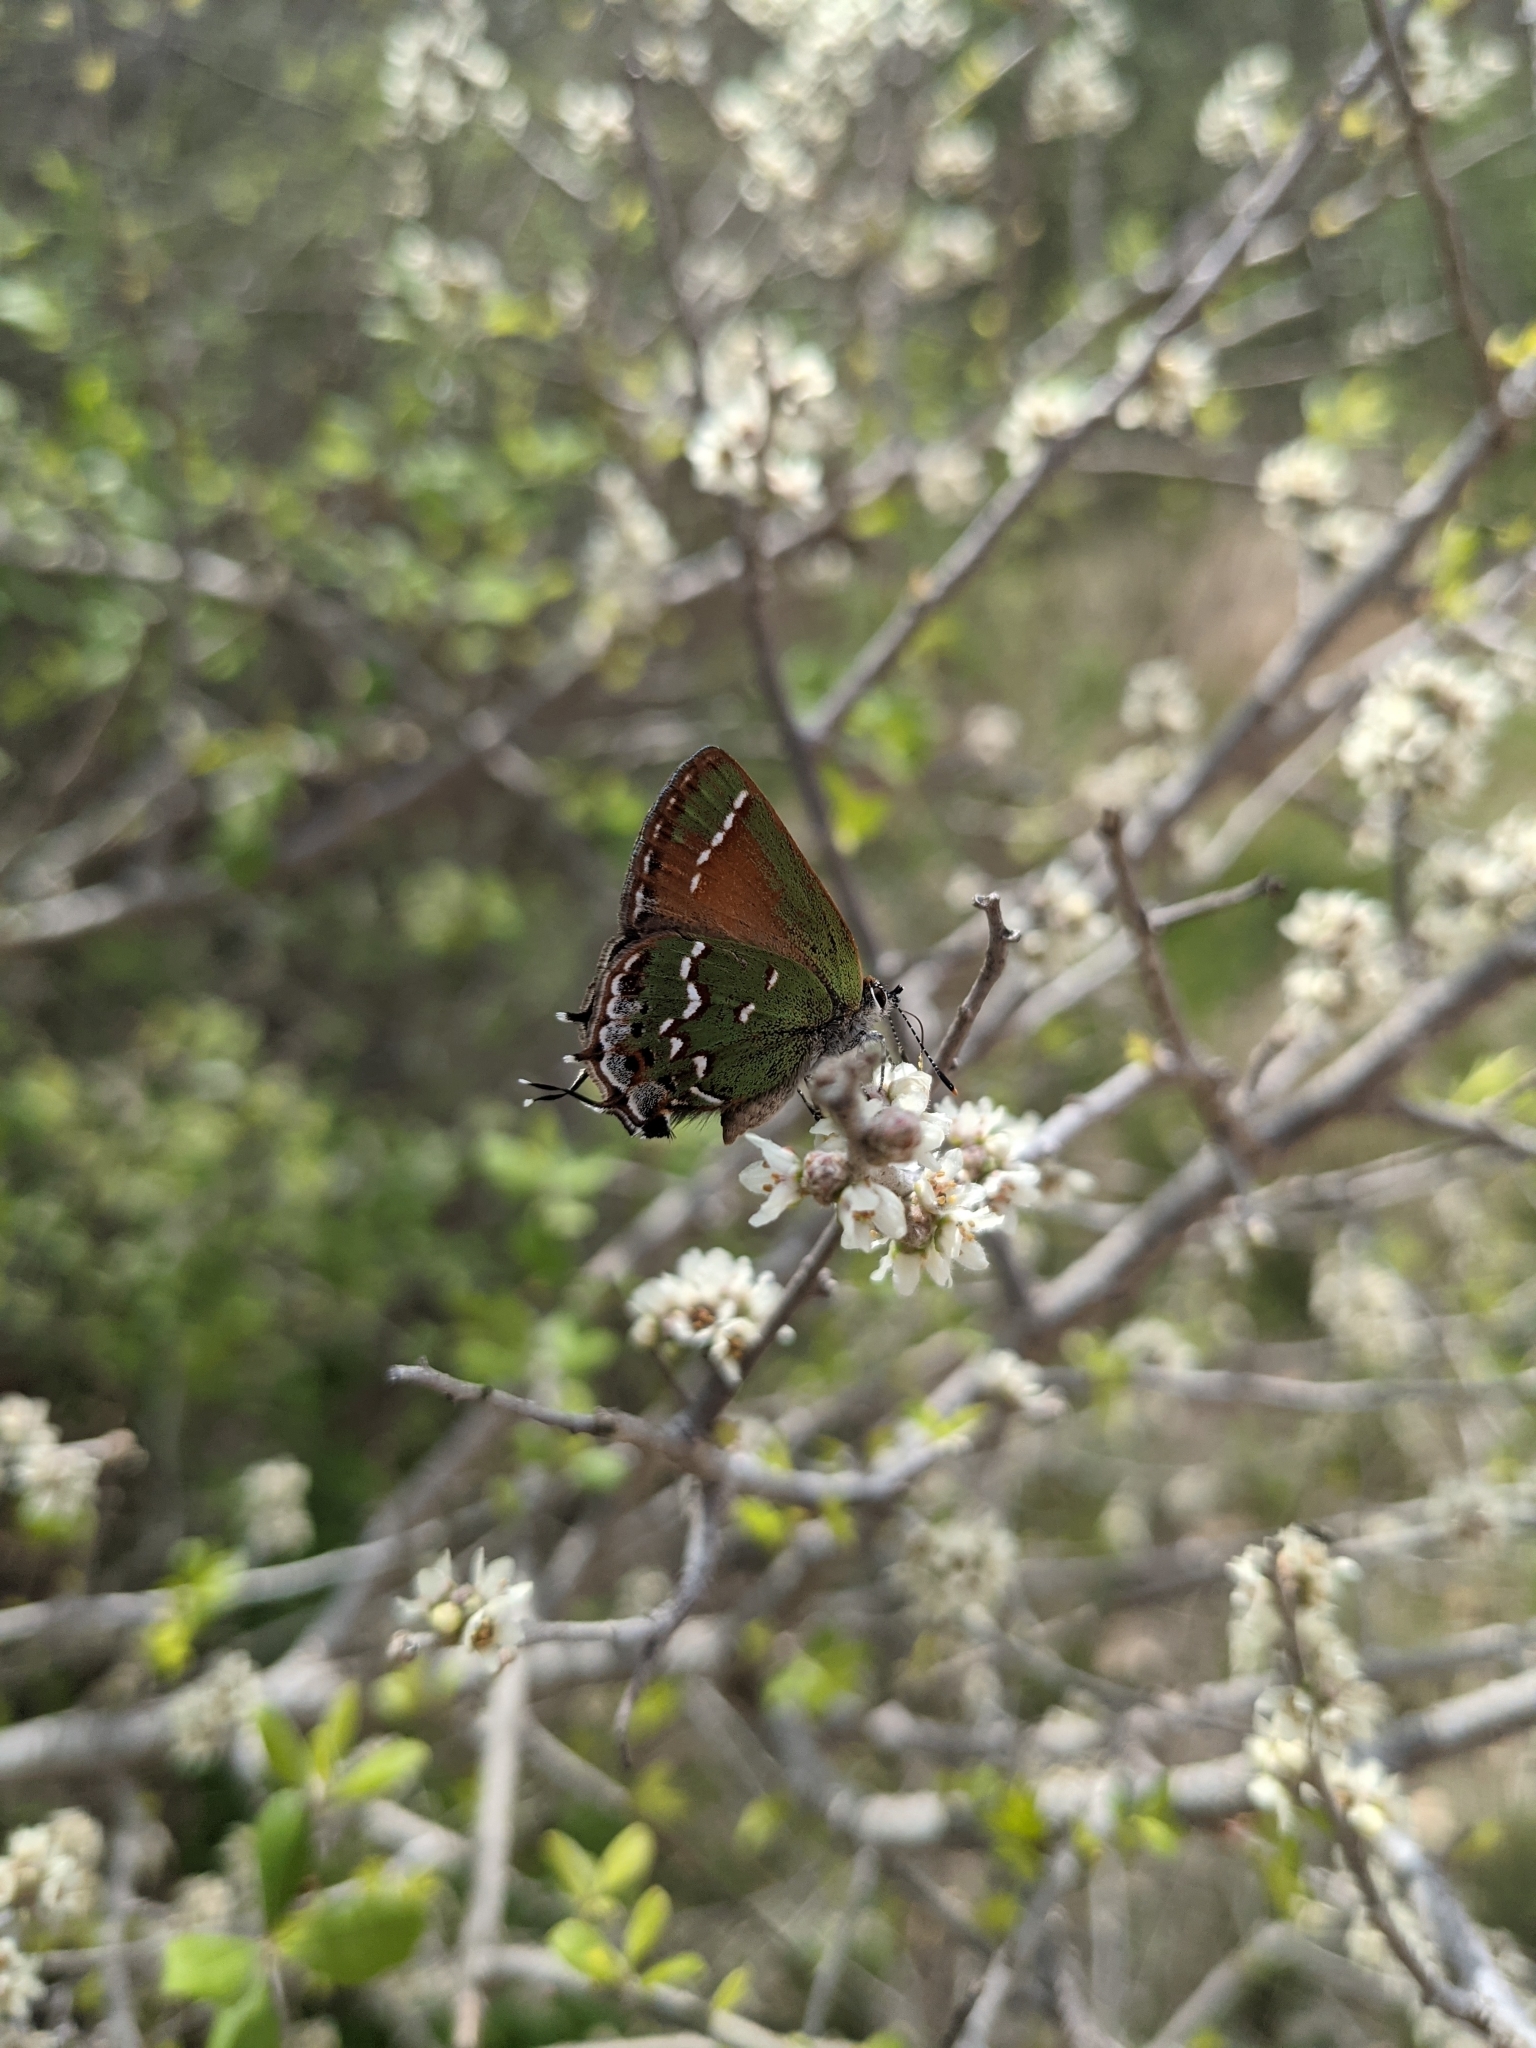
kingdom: Animalia
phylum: Arthropoda
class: Insecta
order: Lepidoptera
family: Lycaenidae
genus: Mitoura
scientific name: Mitoura gryneus
